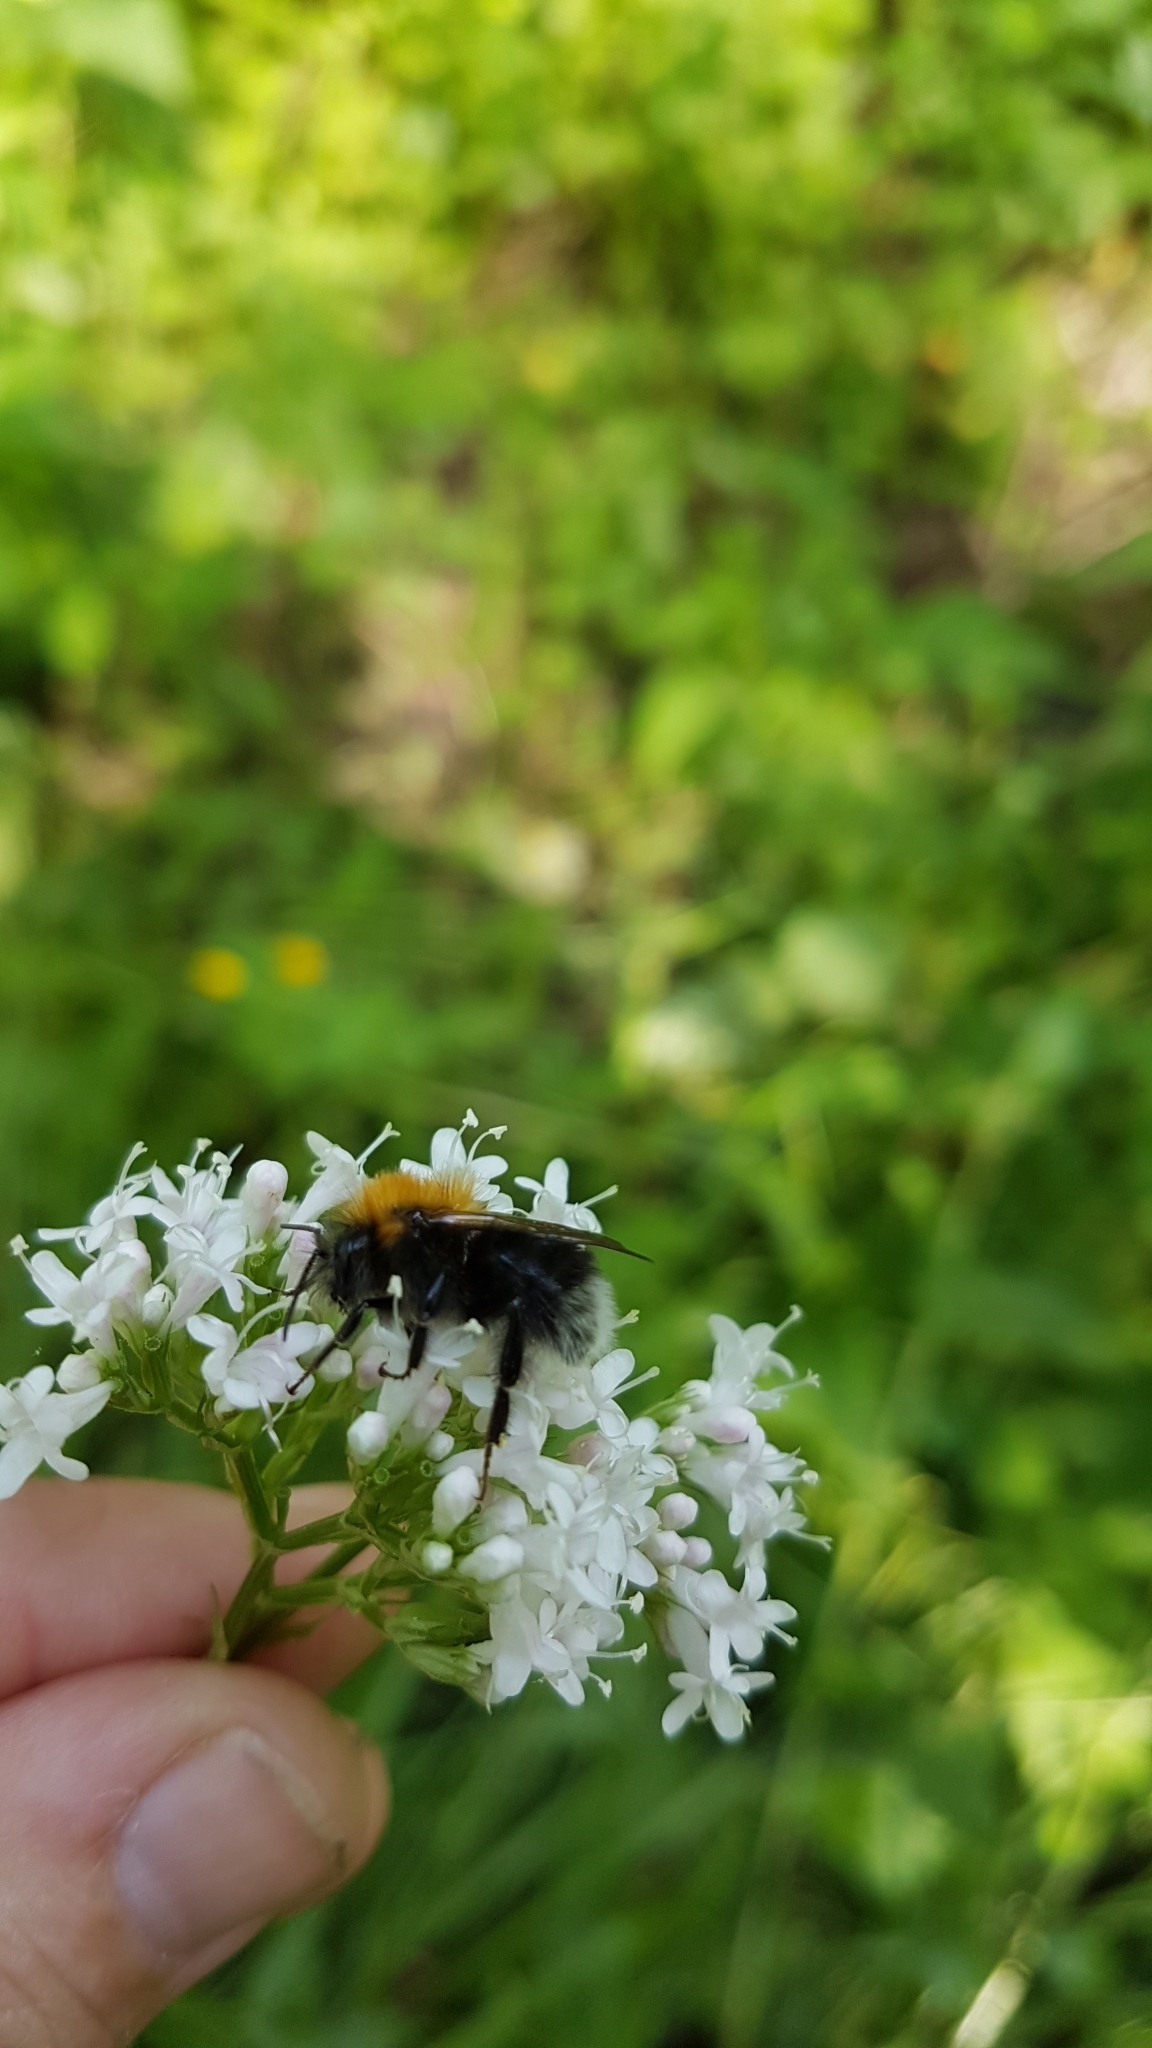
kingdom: Animalia
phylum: Arthropoda
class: Insecta
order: Hymenoptera
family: Apidae
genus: Bombus
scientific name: Bombus hypnorum
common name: New garden bumblebee
